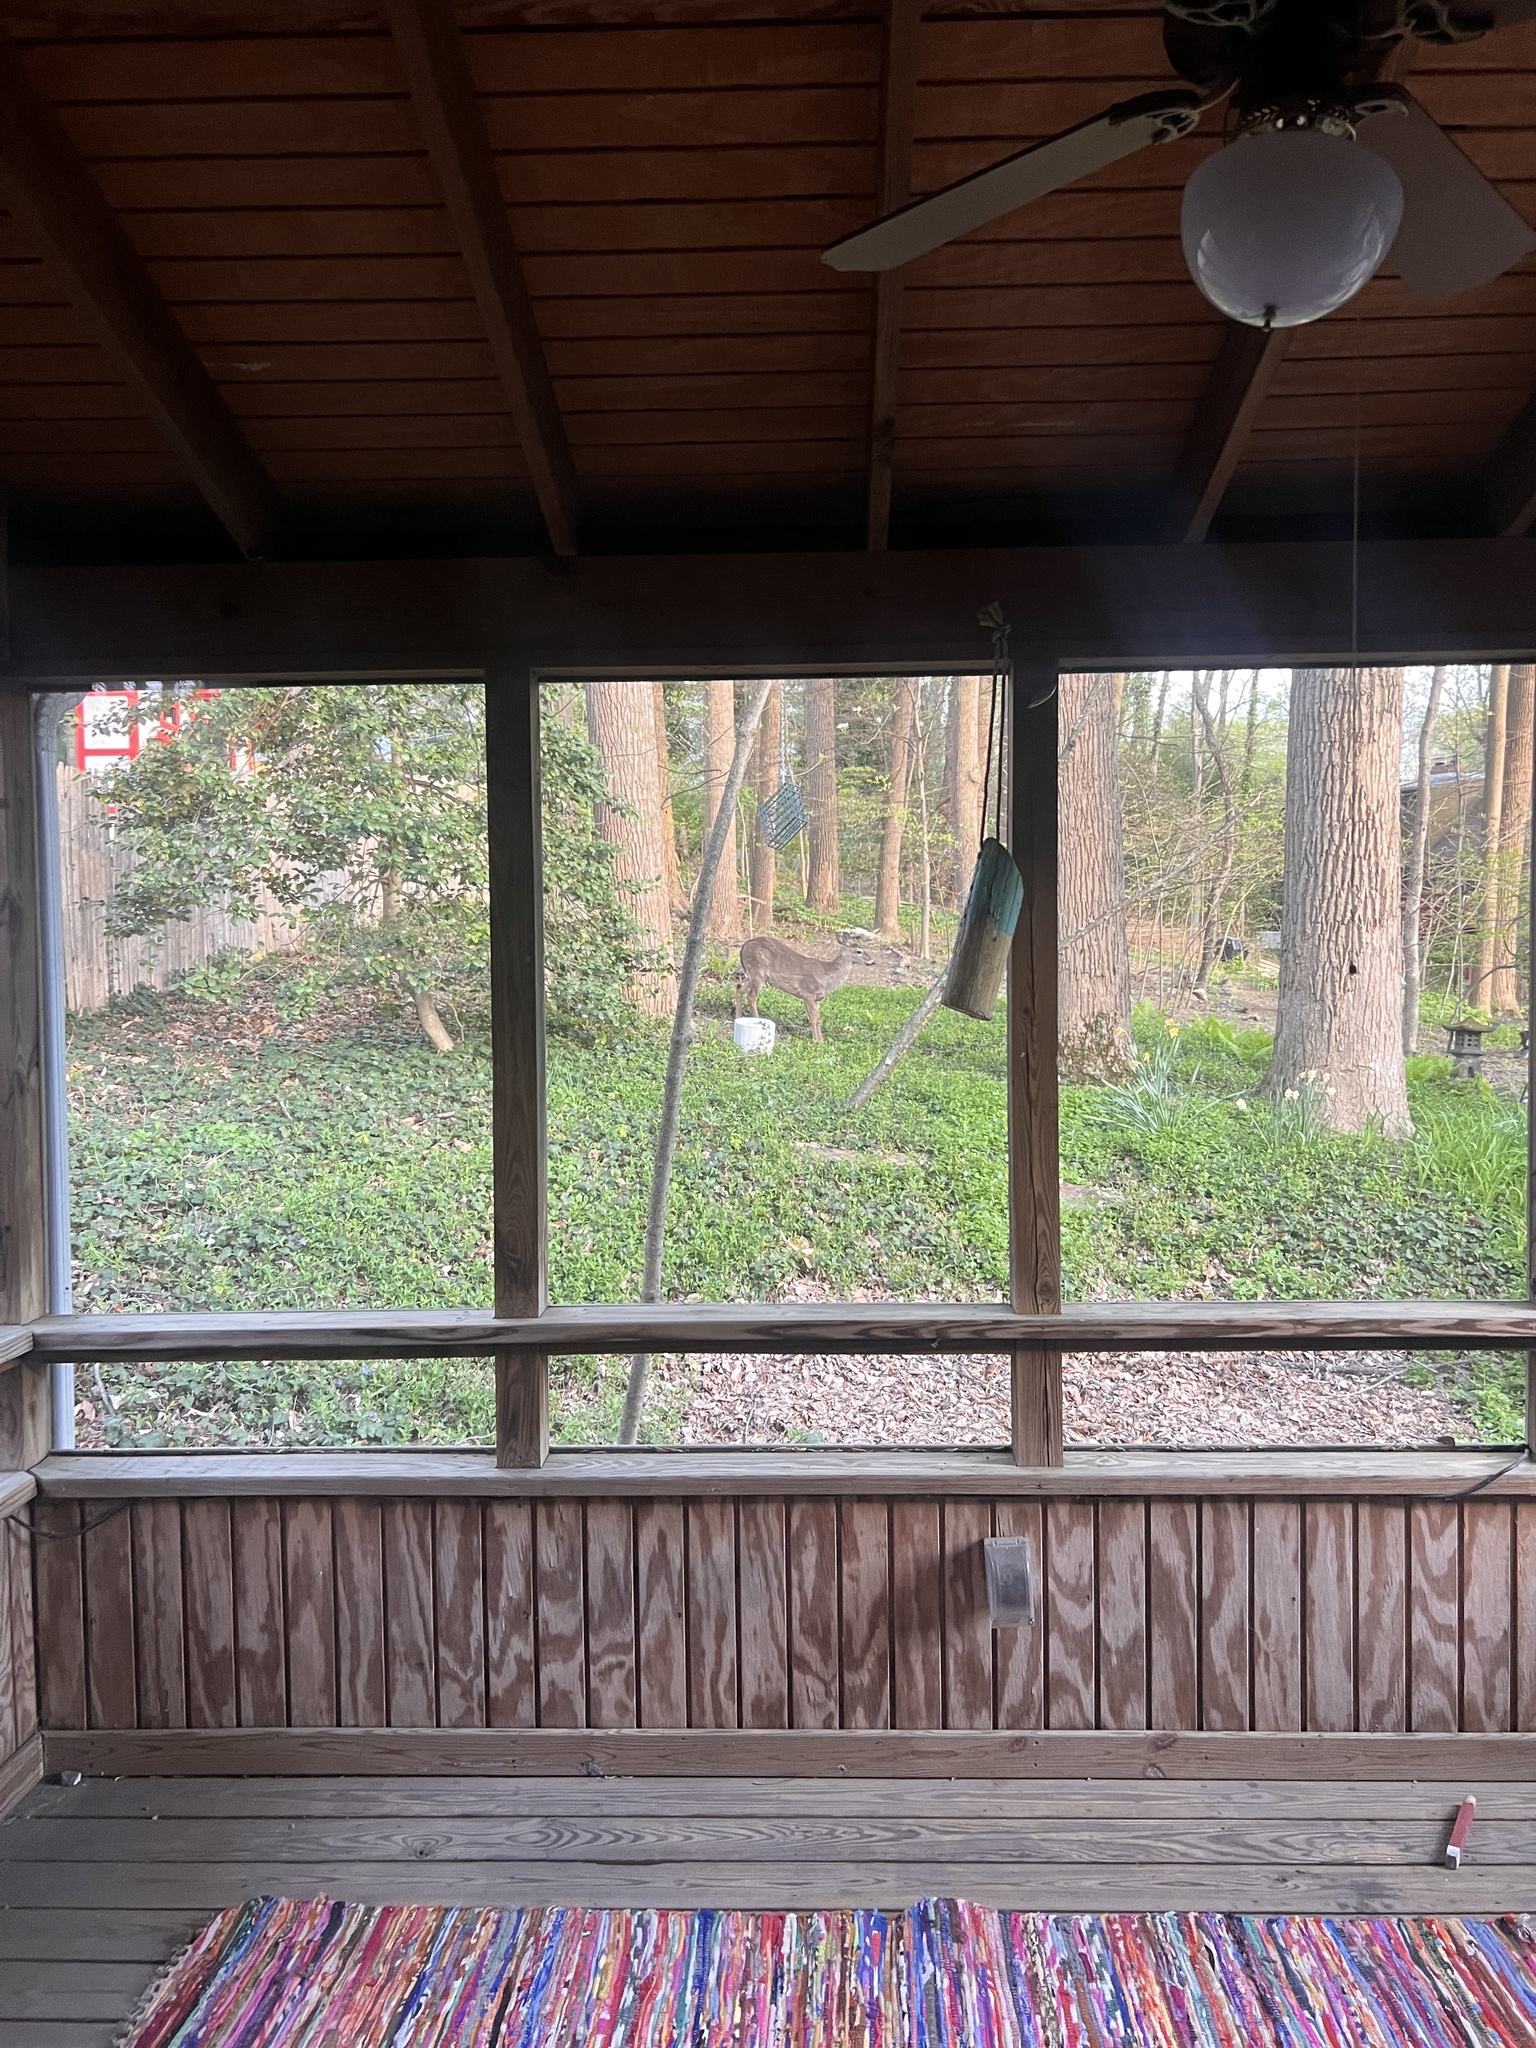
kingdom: Animalia
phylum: Chordata
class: Mammalia
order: Artiodactyla
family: Cervidae
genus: Odocoileus
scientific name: Odocoileus virginianus
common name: White-tailed deer
